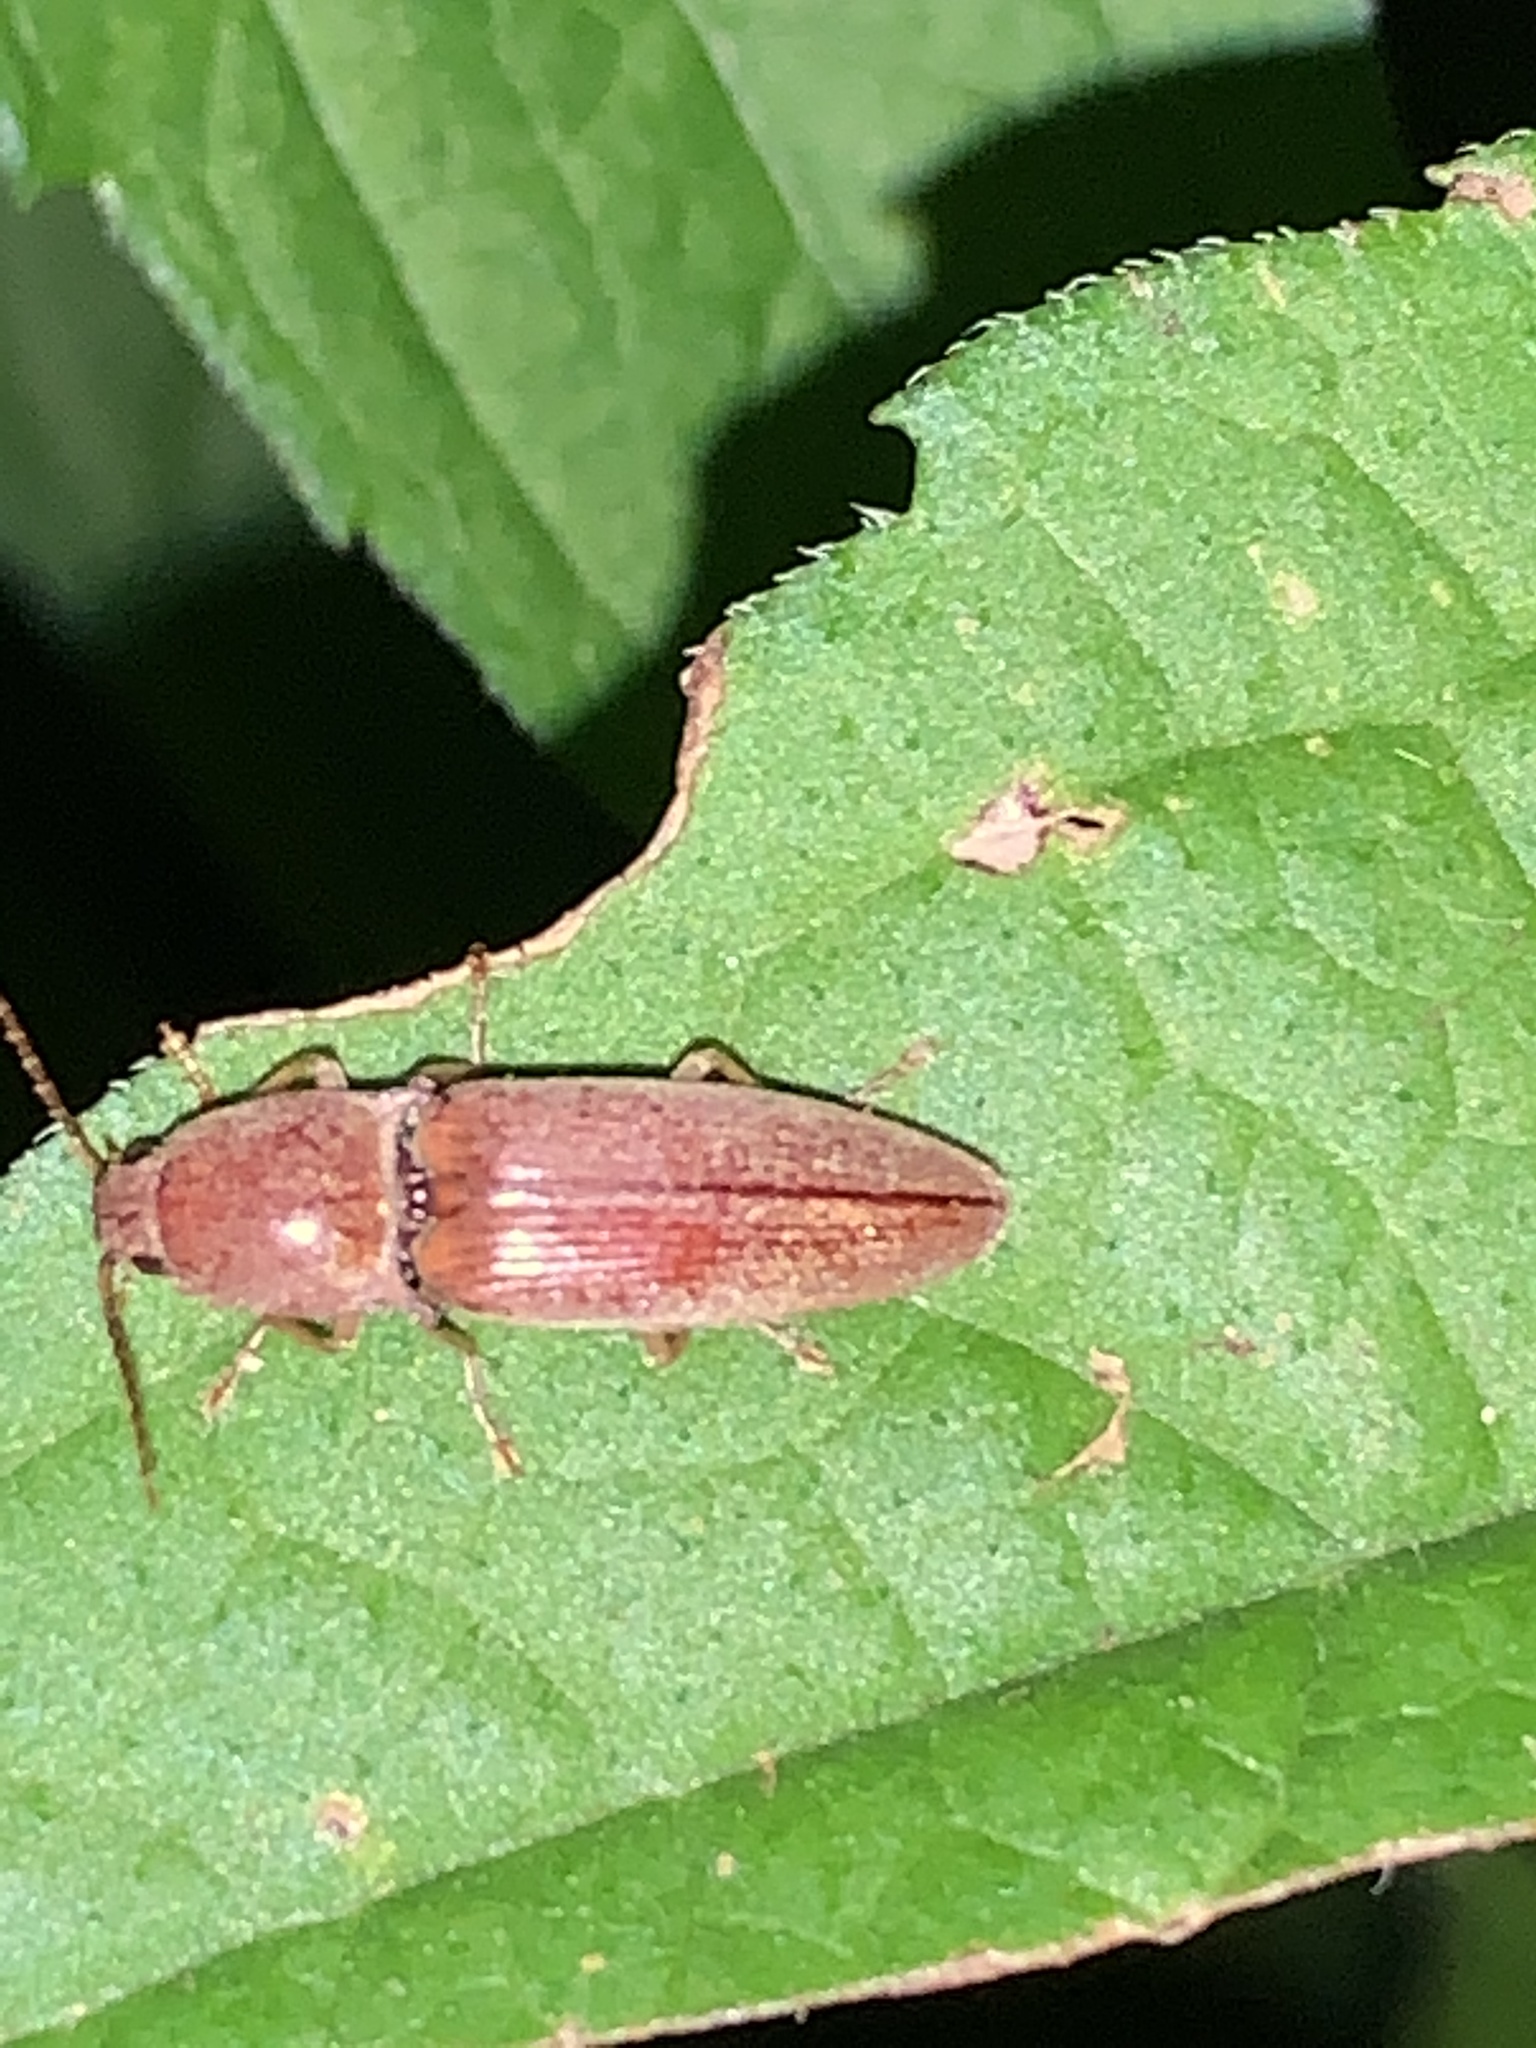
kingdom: Animalia
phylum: Arthropoda
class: Insecta
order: Coleoptera
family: Elateridae
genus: Monocrepidius
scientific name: Monocrepidius lividus
